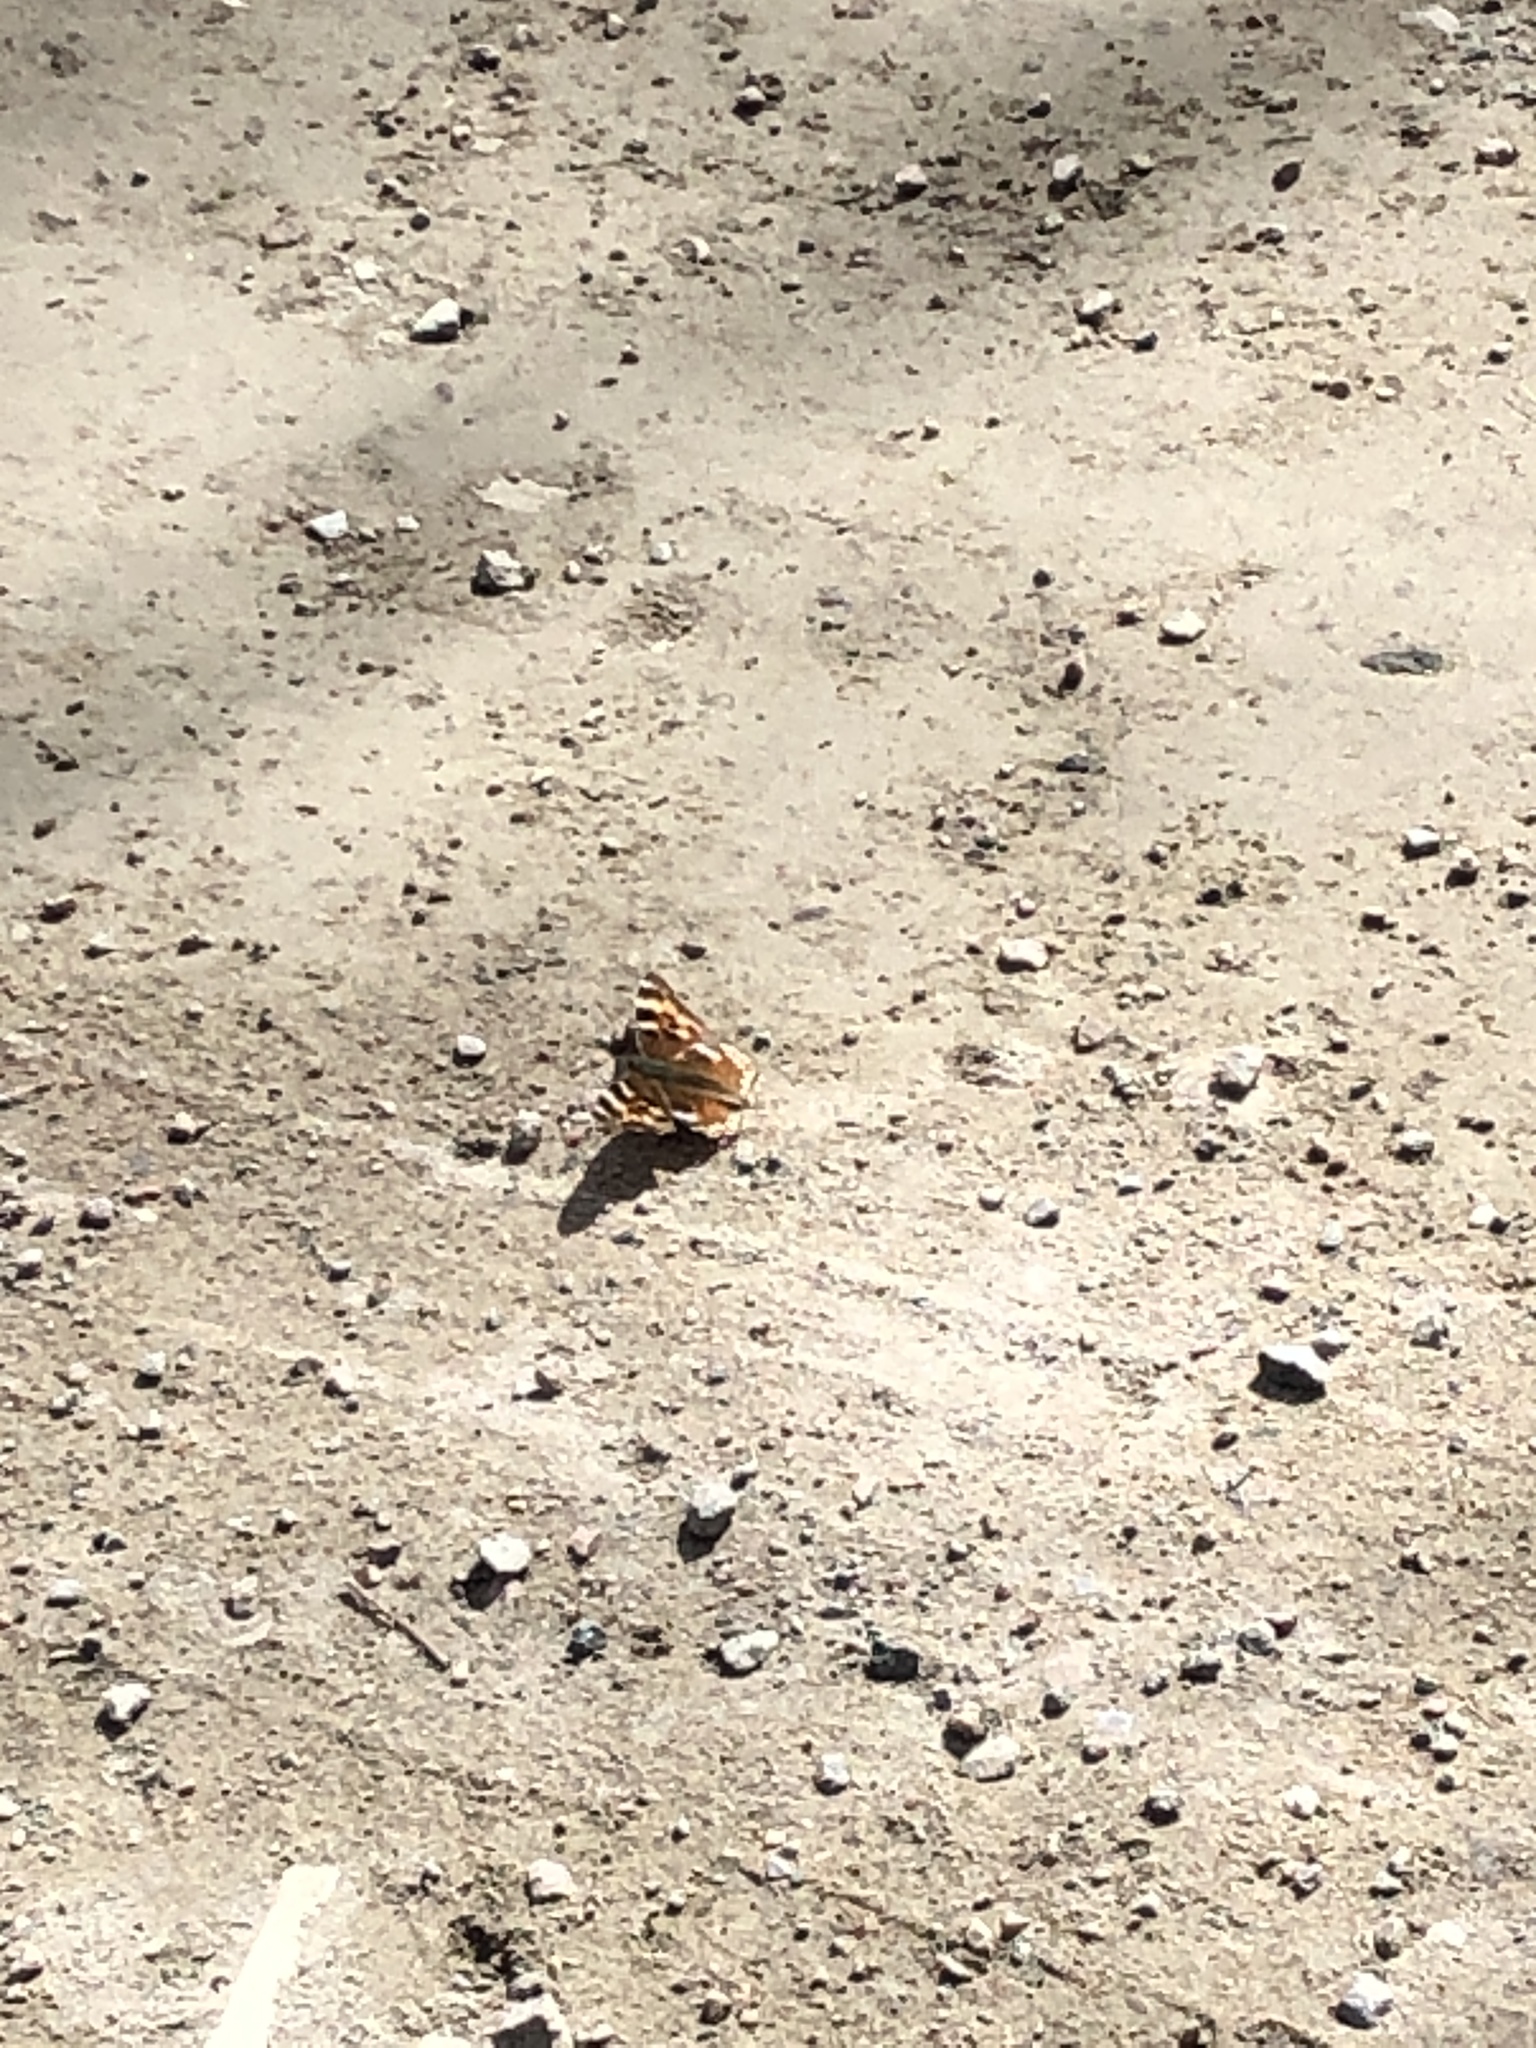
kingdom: Animalia
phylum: Arthropoda
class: Insecta
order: Lepidoptera
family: Nymphalidae
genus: Polygonia
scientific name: Polygonia vaualbum
